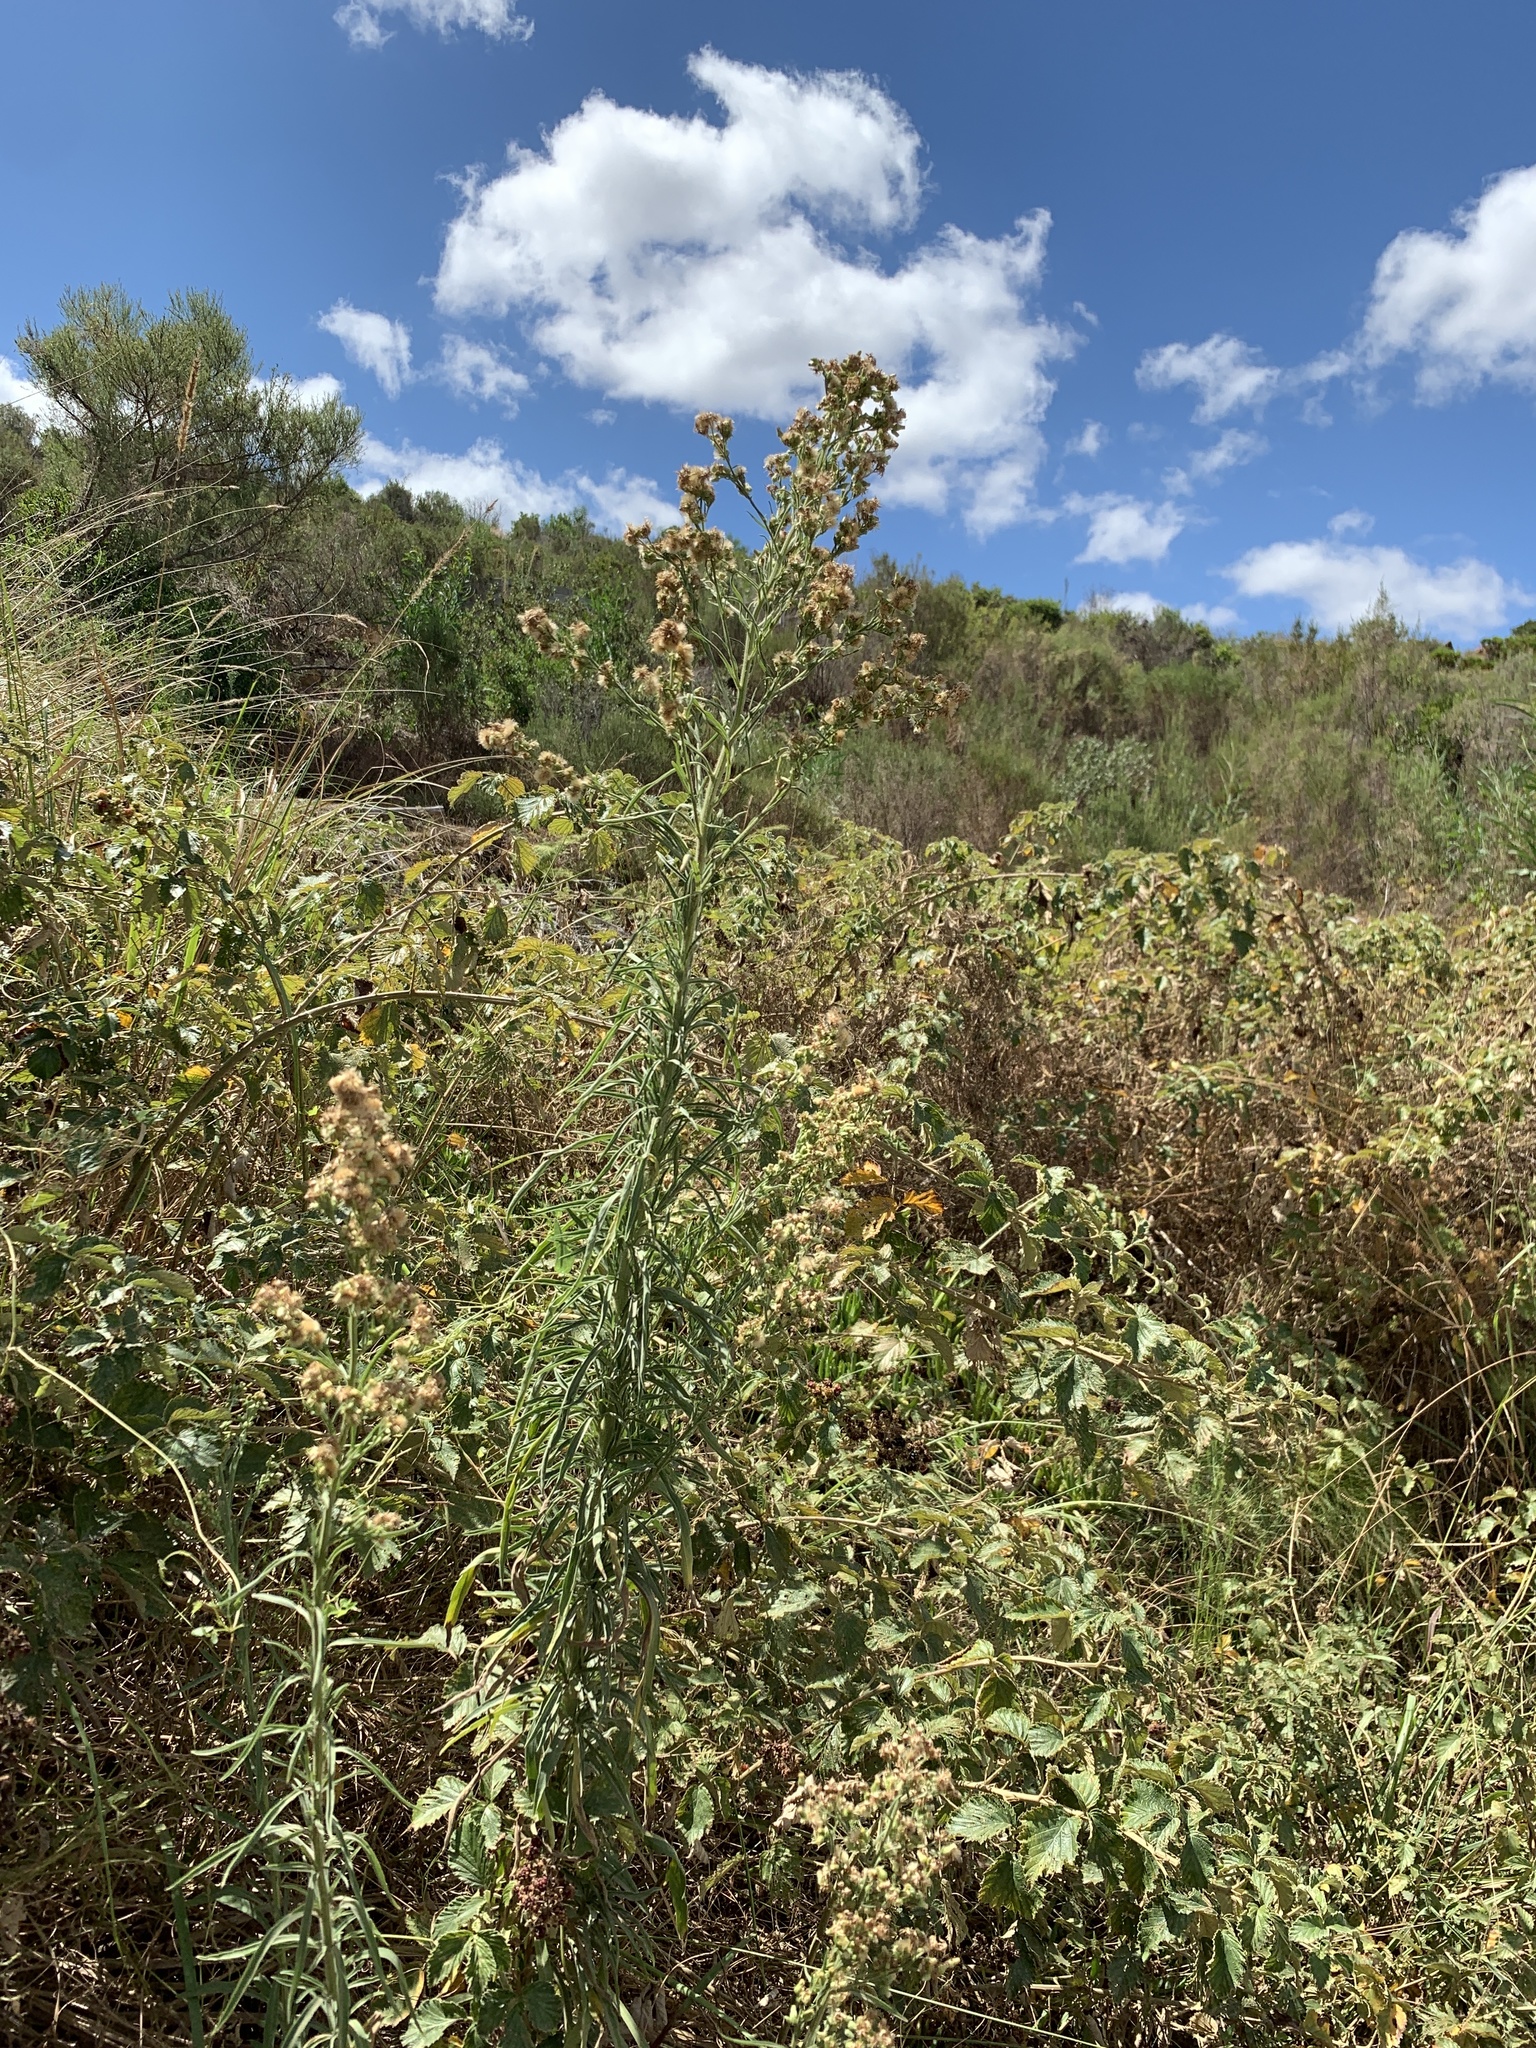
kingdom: Plantae
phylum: Tracheophyta
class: Magnoliopsida
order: Asterales
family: Asteraceae
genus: Erigeron
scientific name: Erigeron sumatrensis
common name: Daisy
